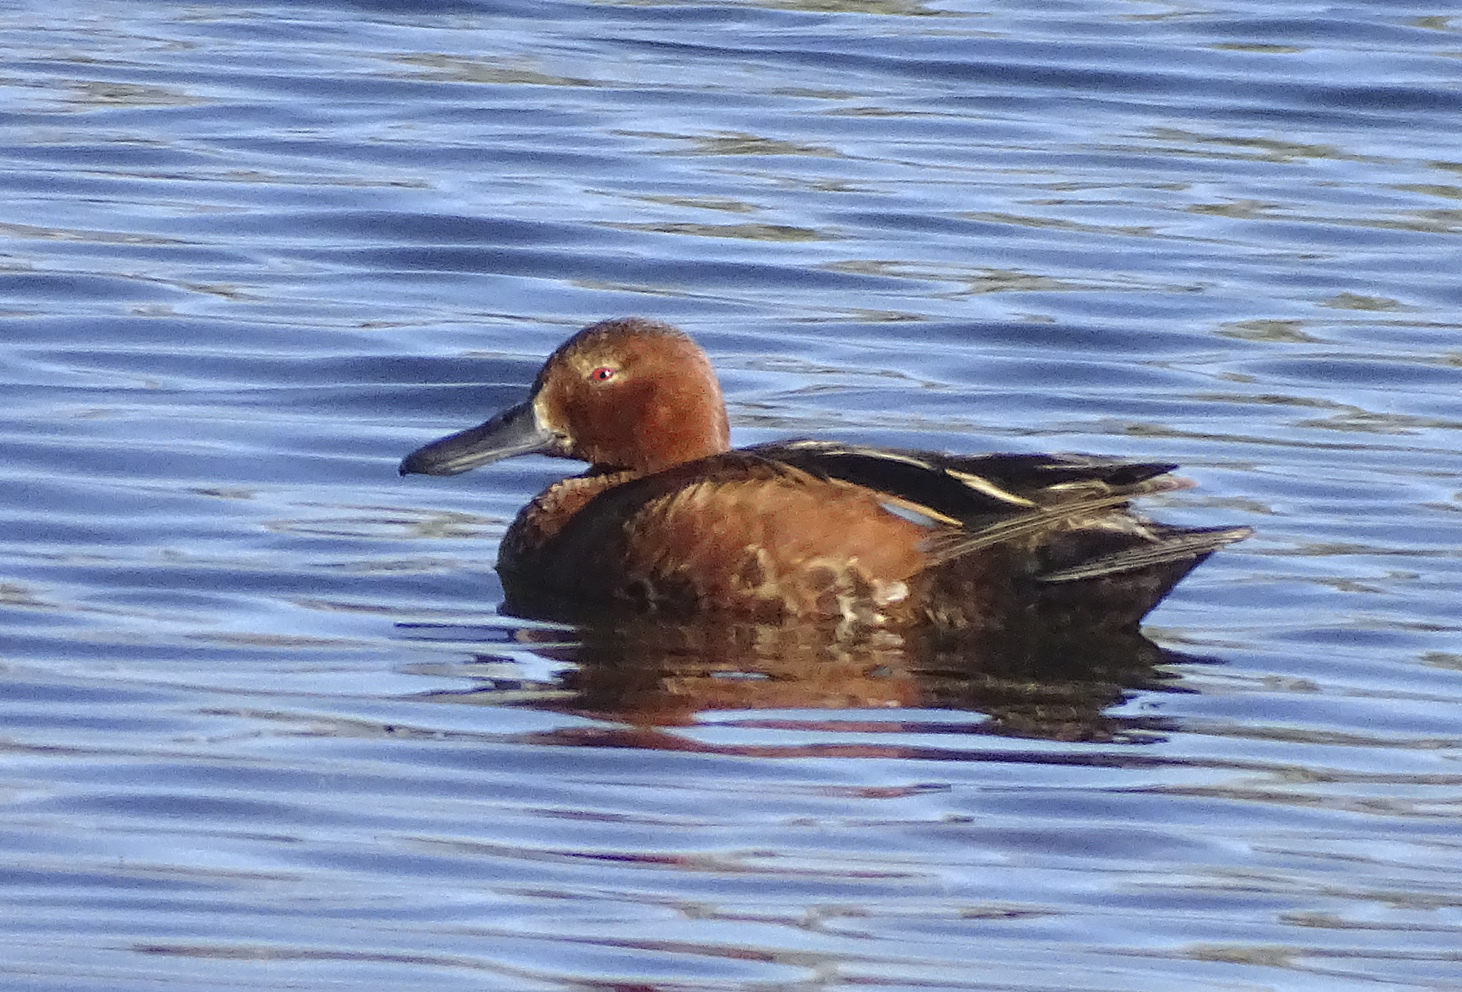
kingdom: Animalia
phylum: Chordata
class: Aves
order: Anseriformes
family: Anatidae
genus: Spatula
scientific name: Spatula cyanoptera
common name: Cinnamon teal
